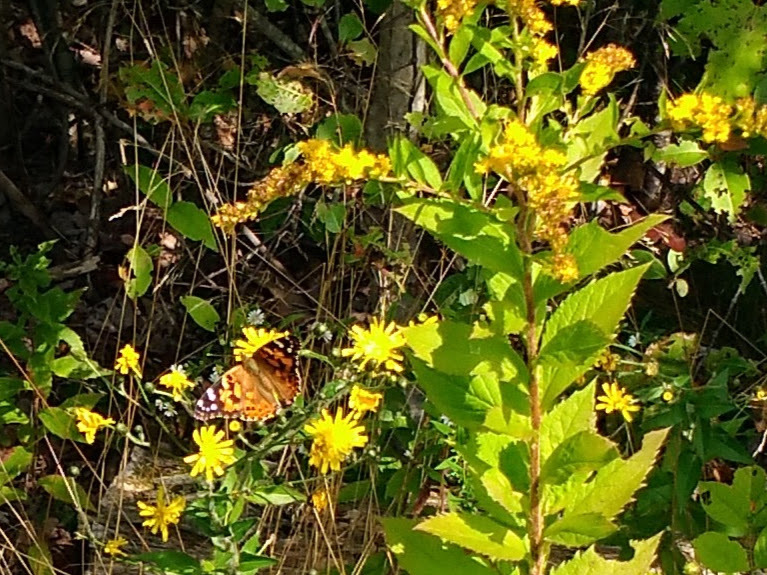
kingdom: Animalia
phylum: Arthropoda
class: Insecta
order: Lepidoptera
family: Nymphalidae
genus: Vanessa
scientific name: Vanessa cardui
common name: Painted lady
